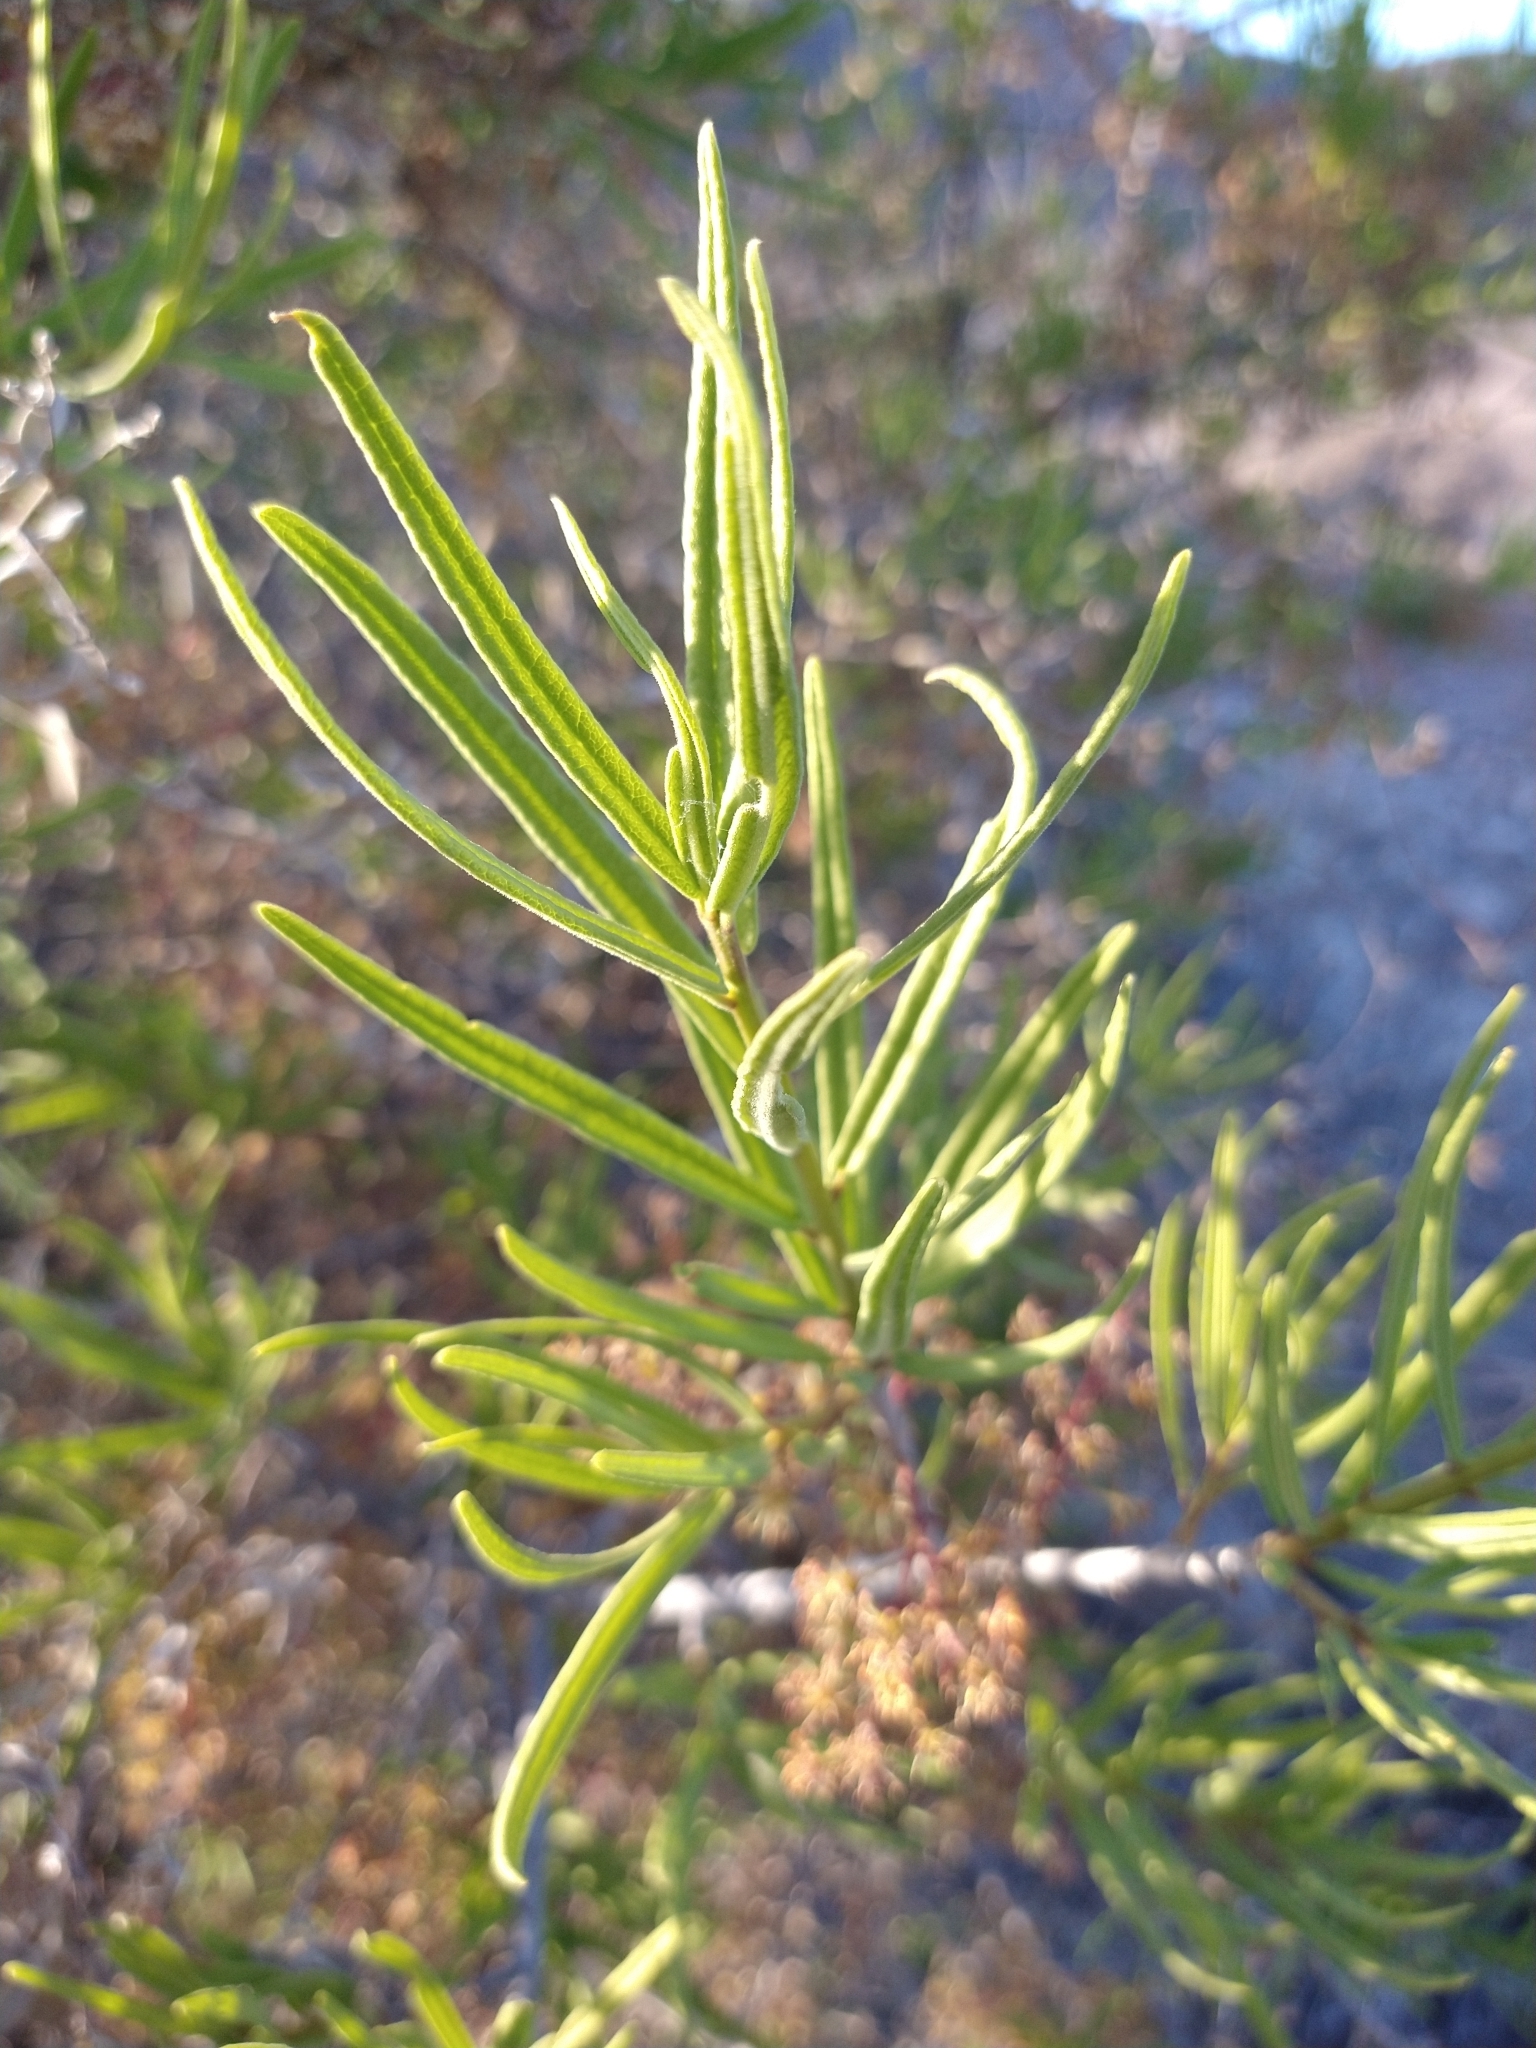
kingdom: Plantae
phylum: Tracheophyta
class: Magnoliopsida
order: Brassicales
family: Stixaceae
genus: Forchhammeria
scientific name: Forchhammeria watsonii
